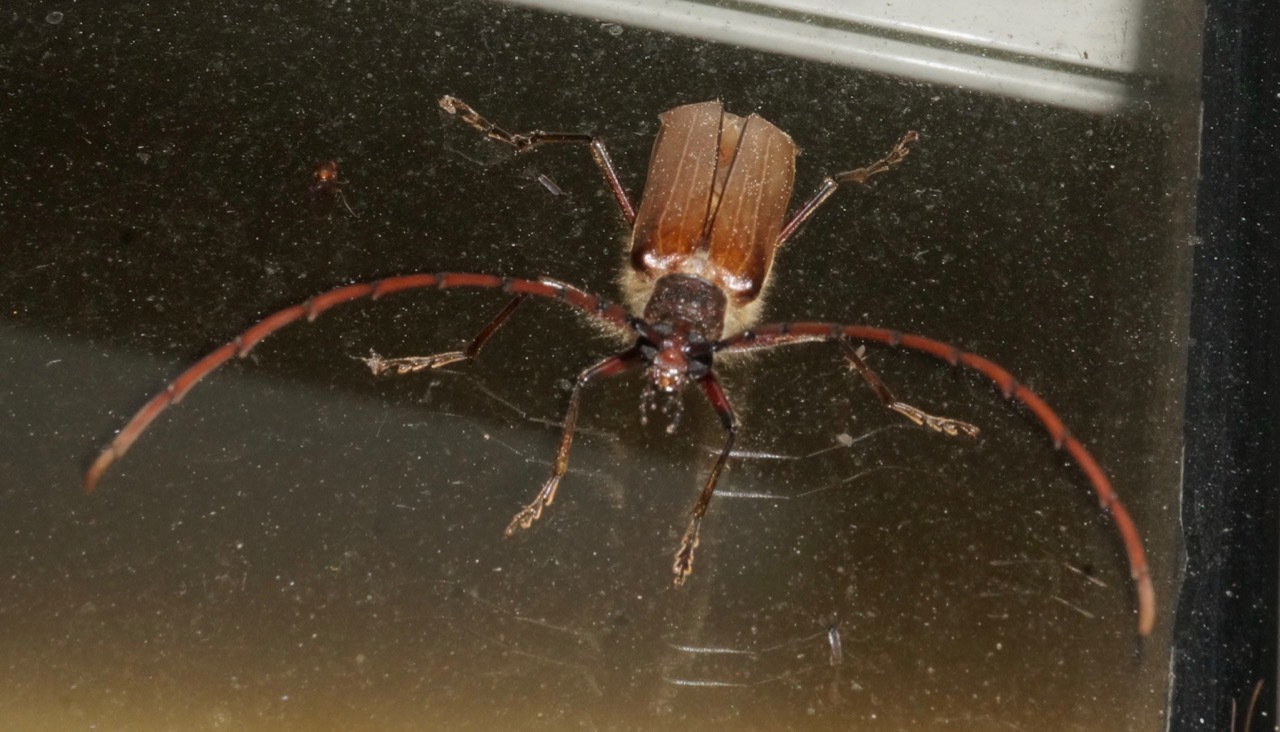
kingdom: Animalia
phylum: Arthropoda
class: Insecta
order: Coleoptera
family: Cerambycidae
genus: Ochrocydus
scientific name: Ochrocydus huttoni
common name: Kanuka longhorn
